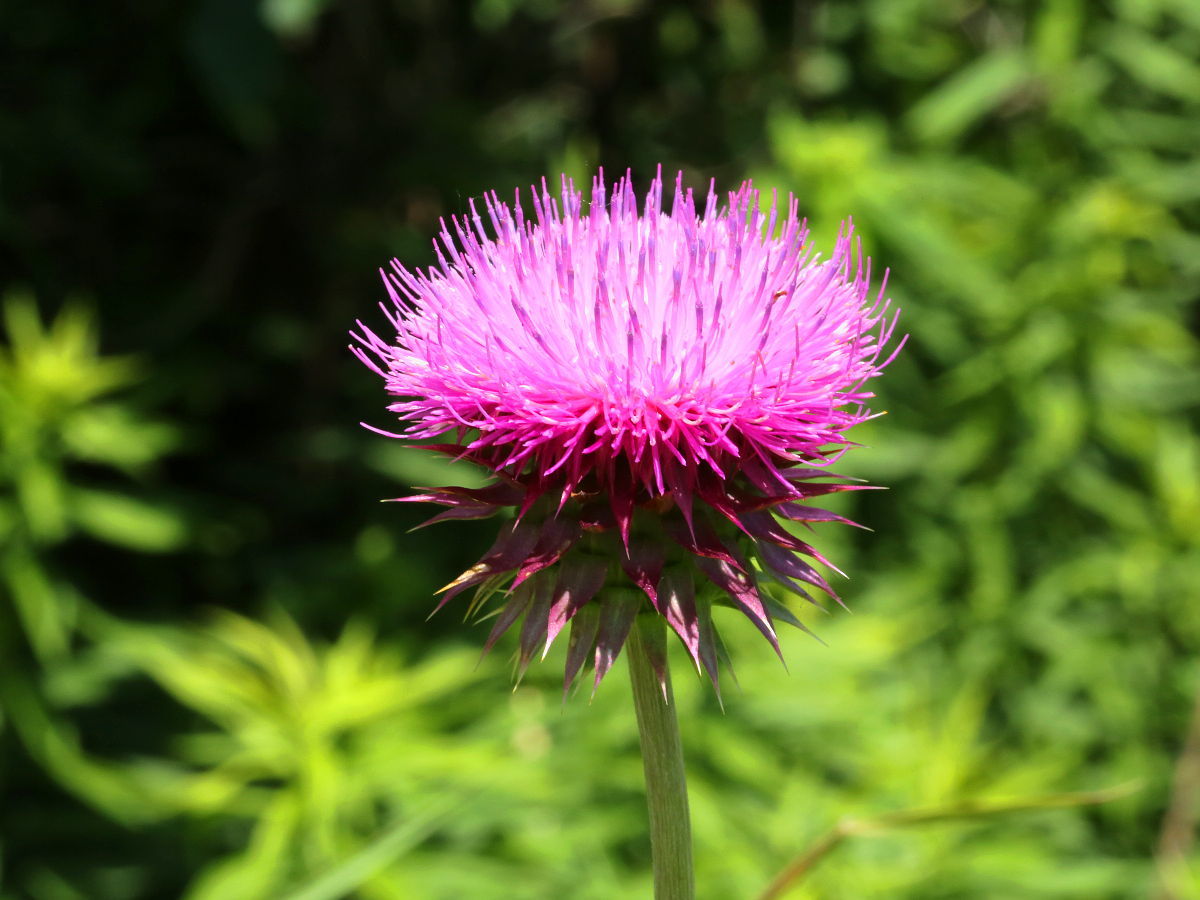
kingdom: Plantae
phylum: Tracheophyta
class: Magnoliopsida
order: Asterales
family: Asteraceae
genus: Carduus
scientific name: Carduus nutans
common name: Musk thistle
